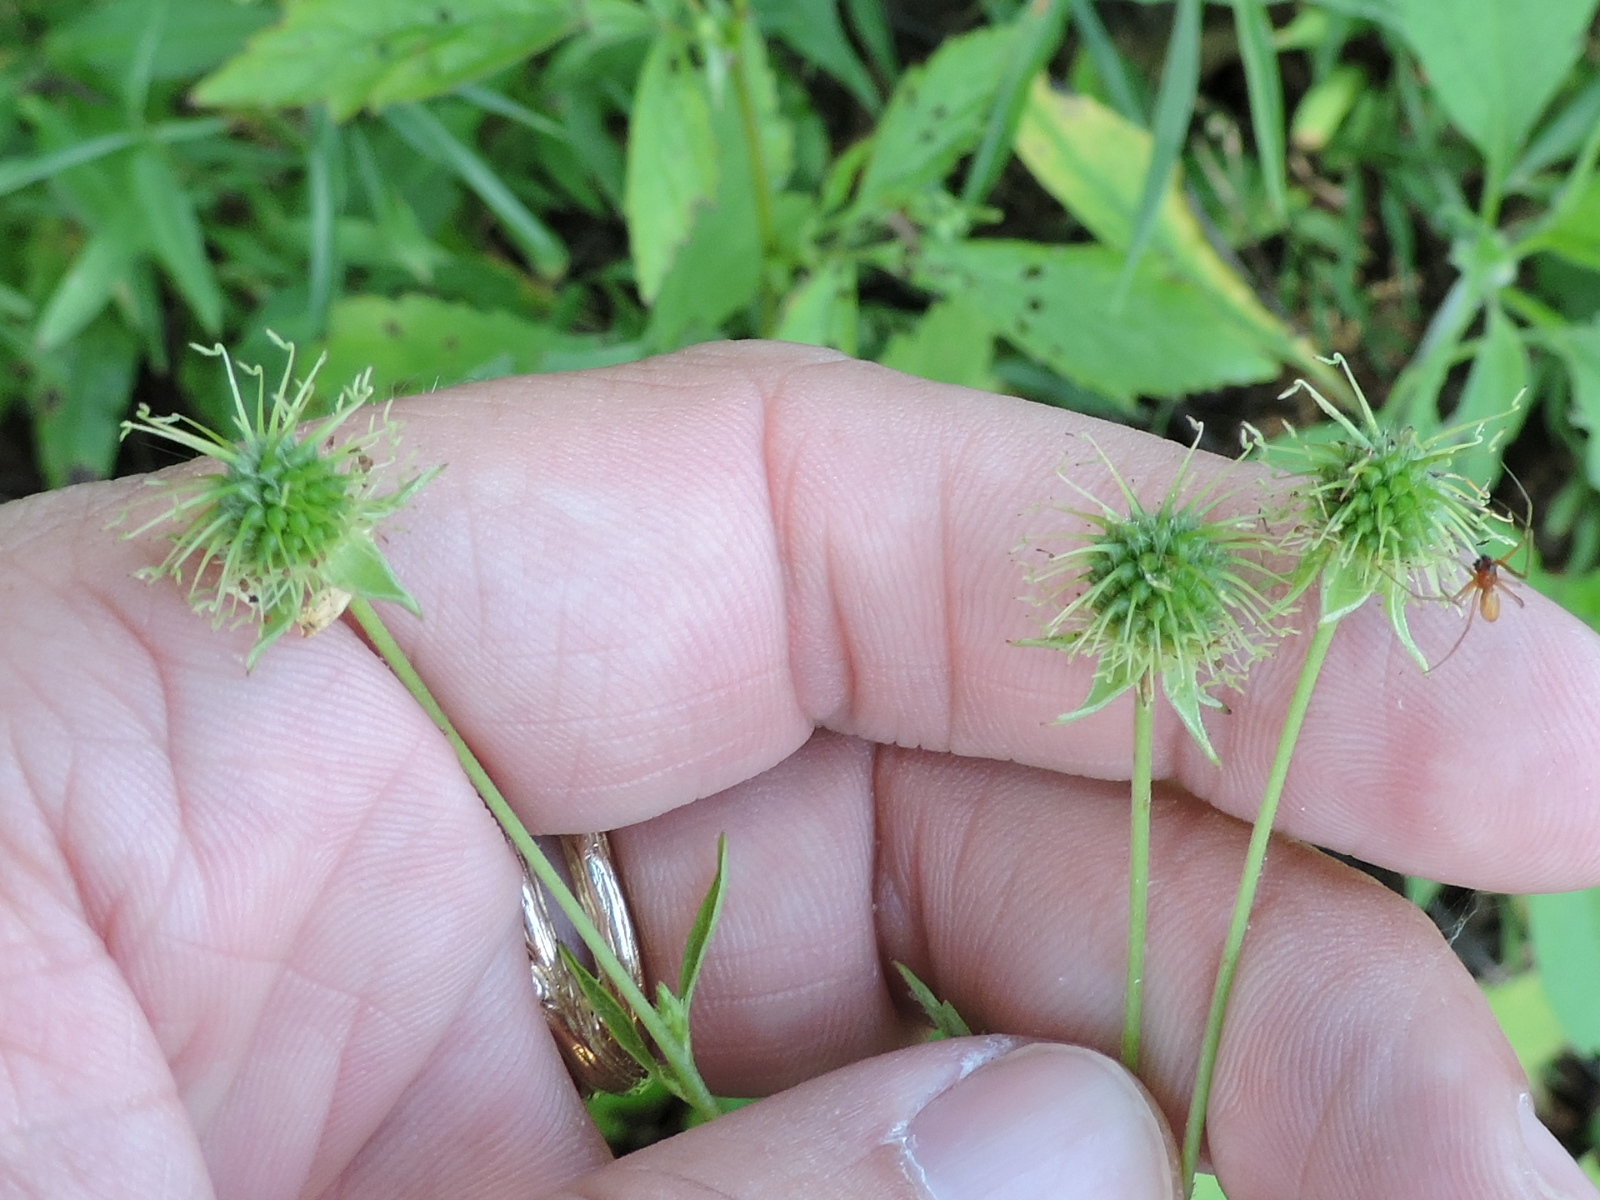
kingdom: Plantae
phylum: Tracheophyta
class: Magnoliopsida
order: Rosales
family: Rosaceae
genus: Geum
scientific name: Geum canadense
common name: White avens
